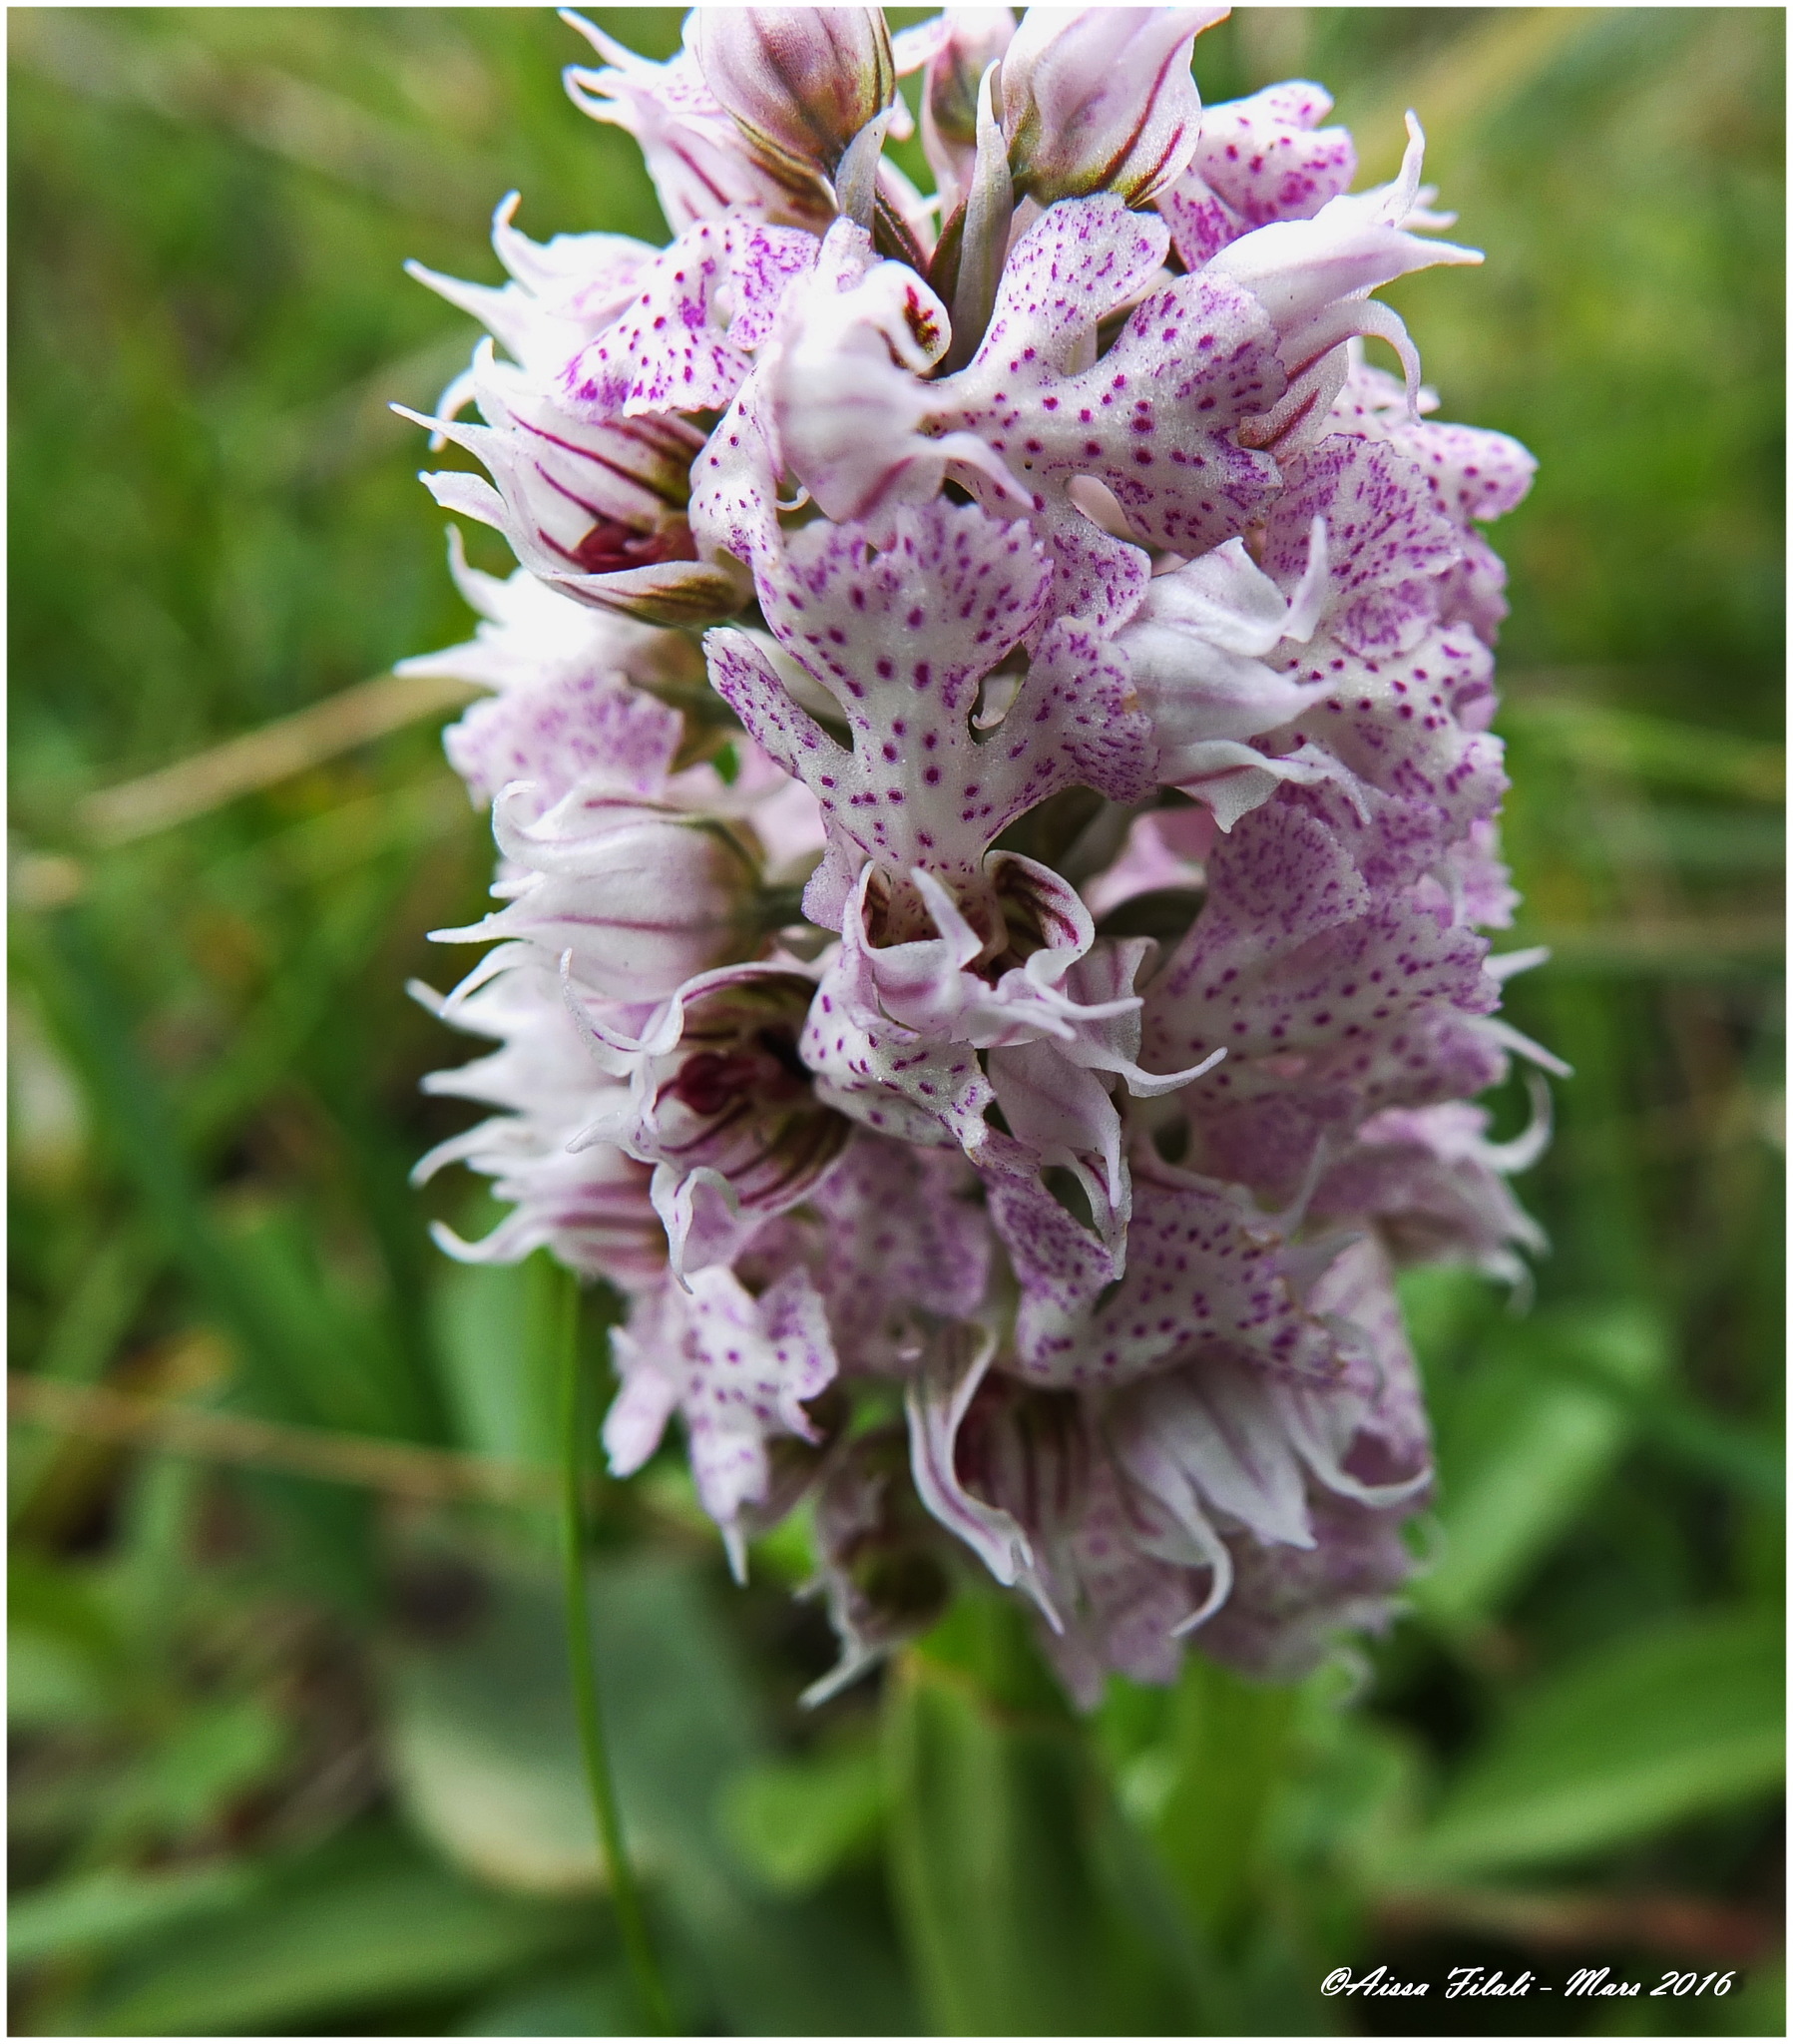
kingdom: Plantae
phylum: Tracheophyta
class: Liliopsida
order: Asparagales
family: Orchidaceae
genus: Neotinea
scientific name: Neotinea lactea
